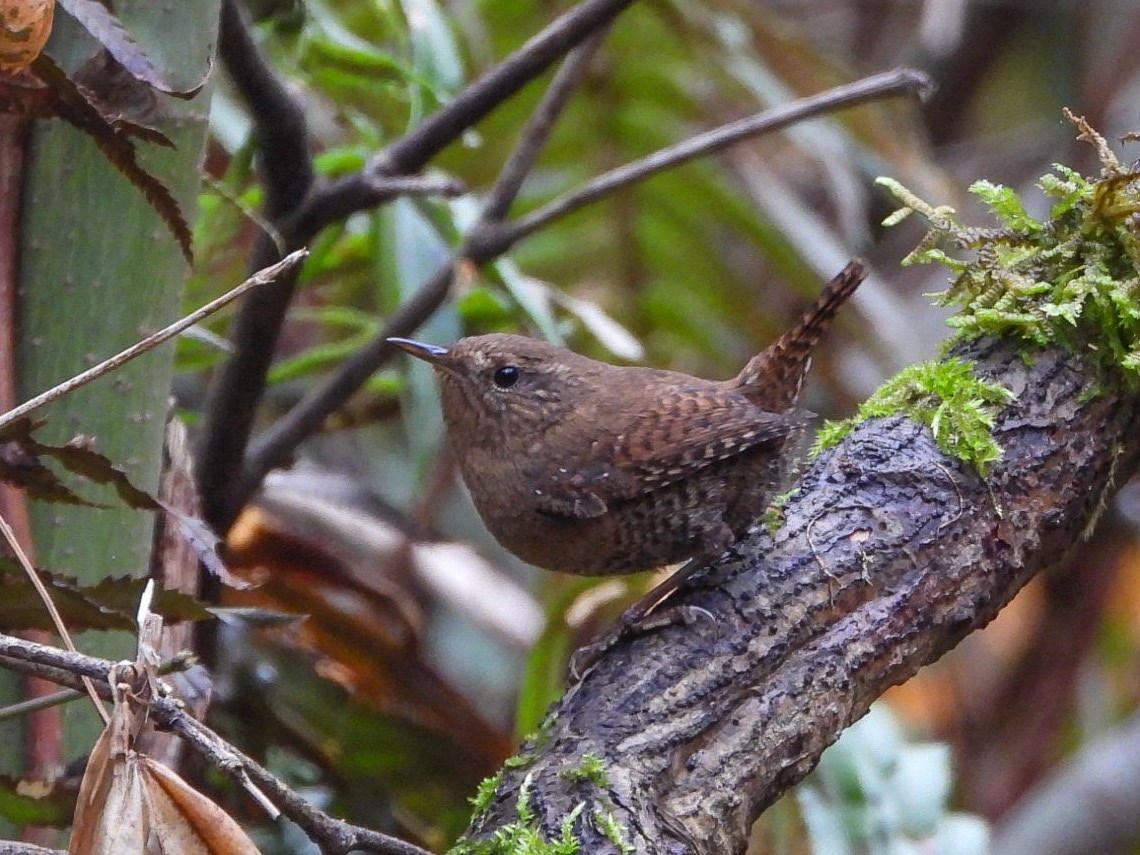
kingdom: Animalia
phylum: Chordata
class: Aves
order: Passeriformes
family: Troglodytidae
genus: Troglodytes
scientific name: Troglodytes pacificus
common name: Pacific wren
